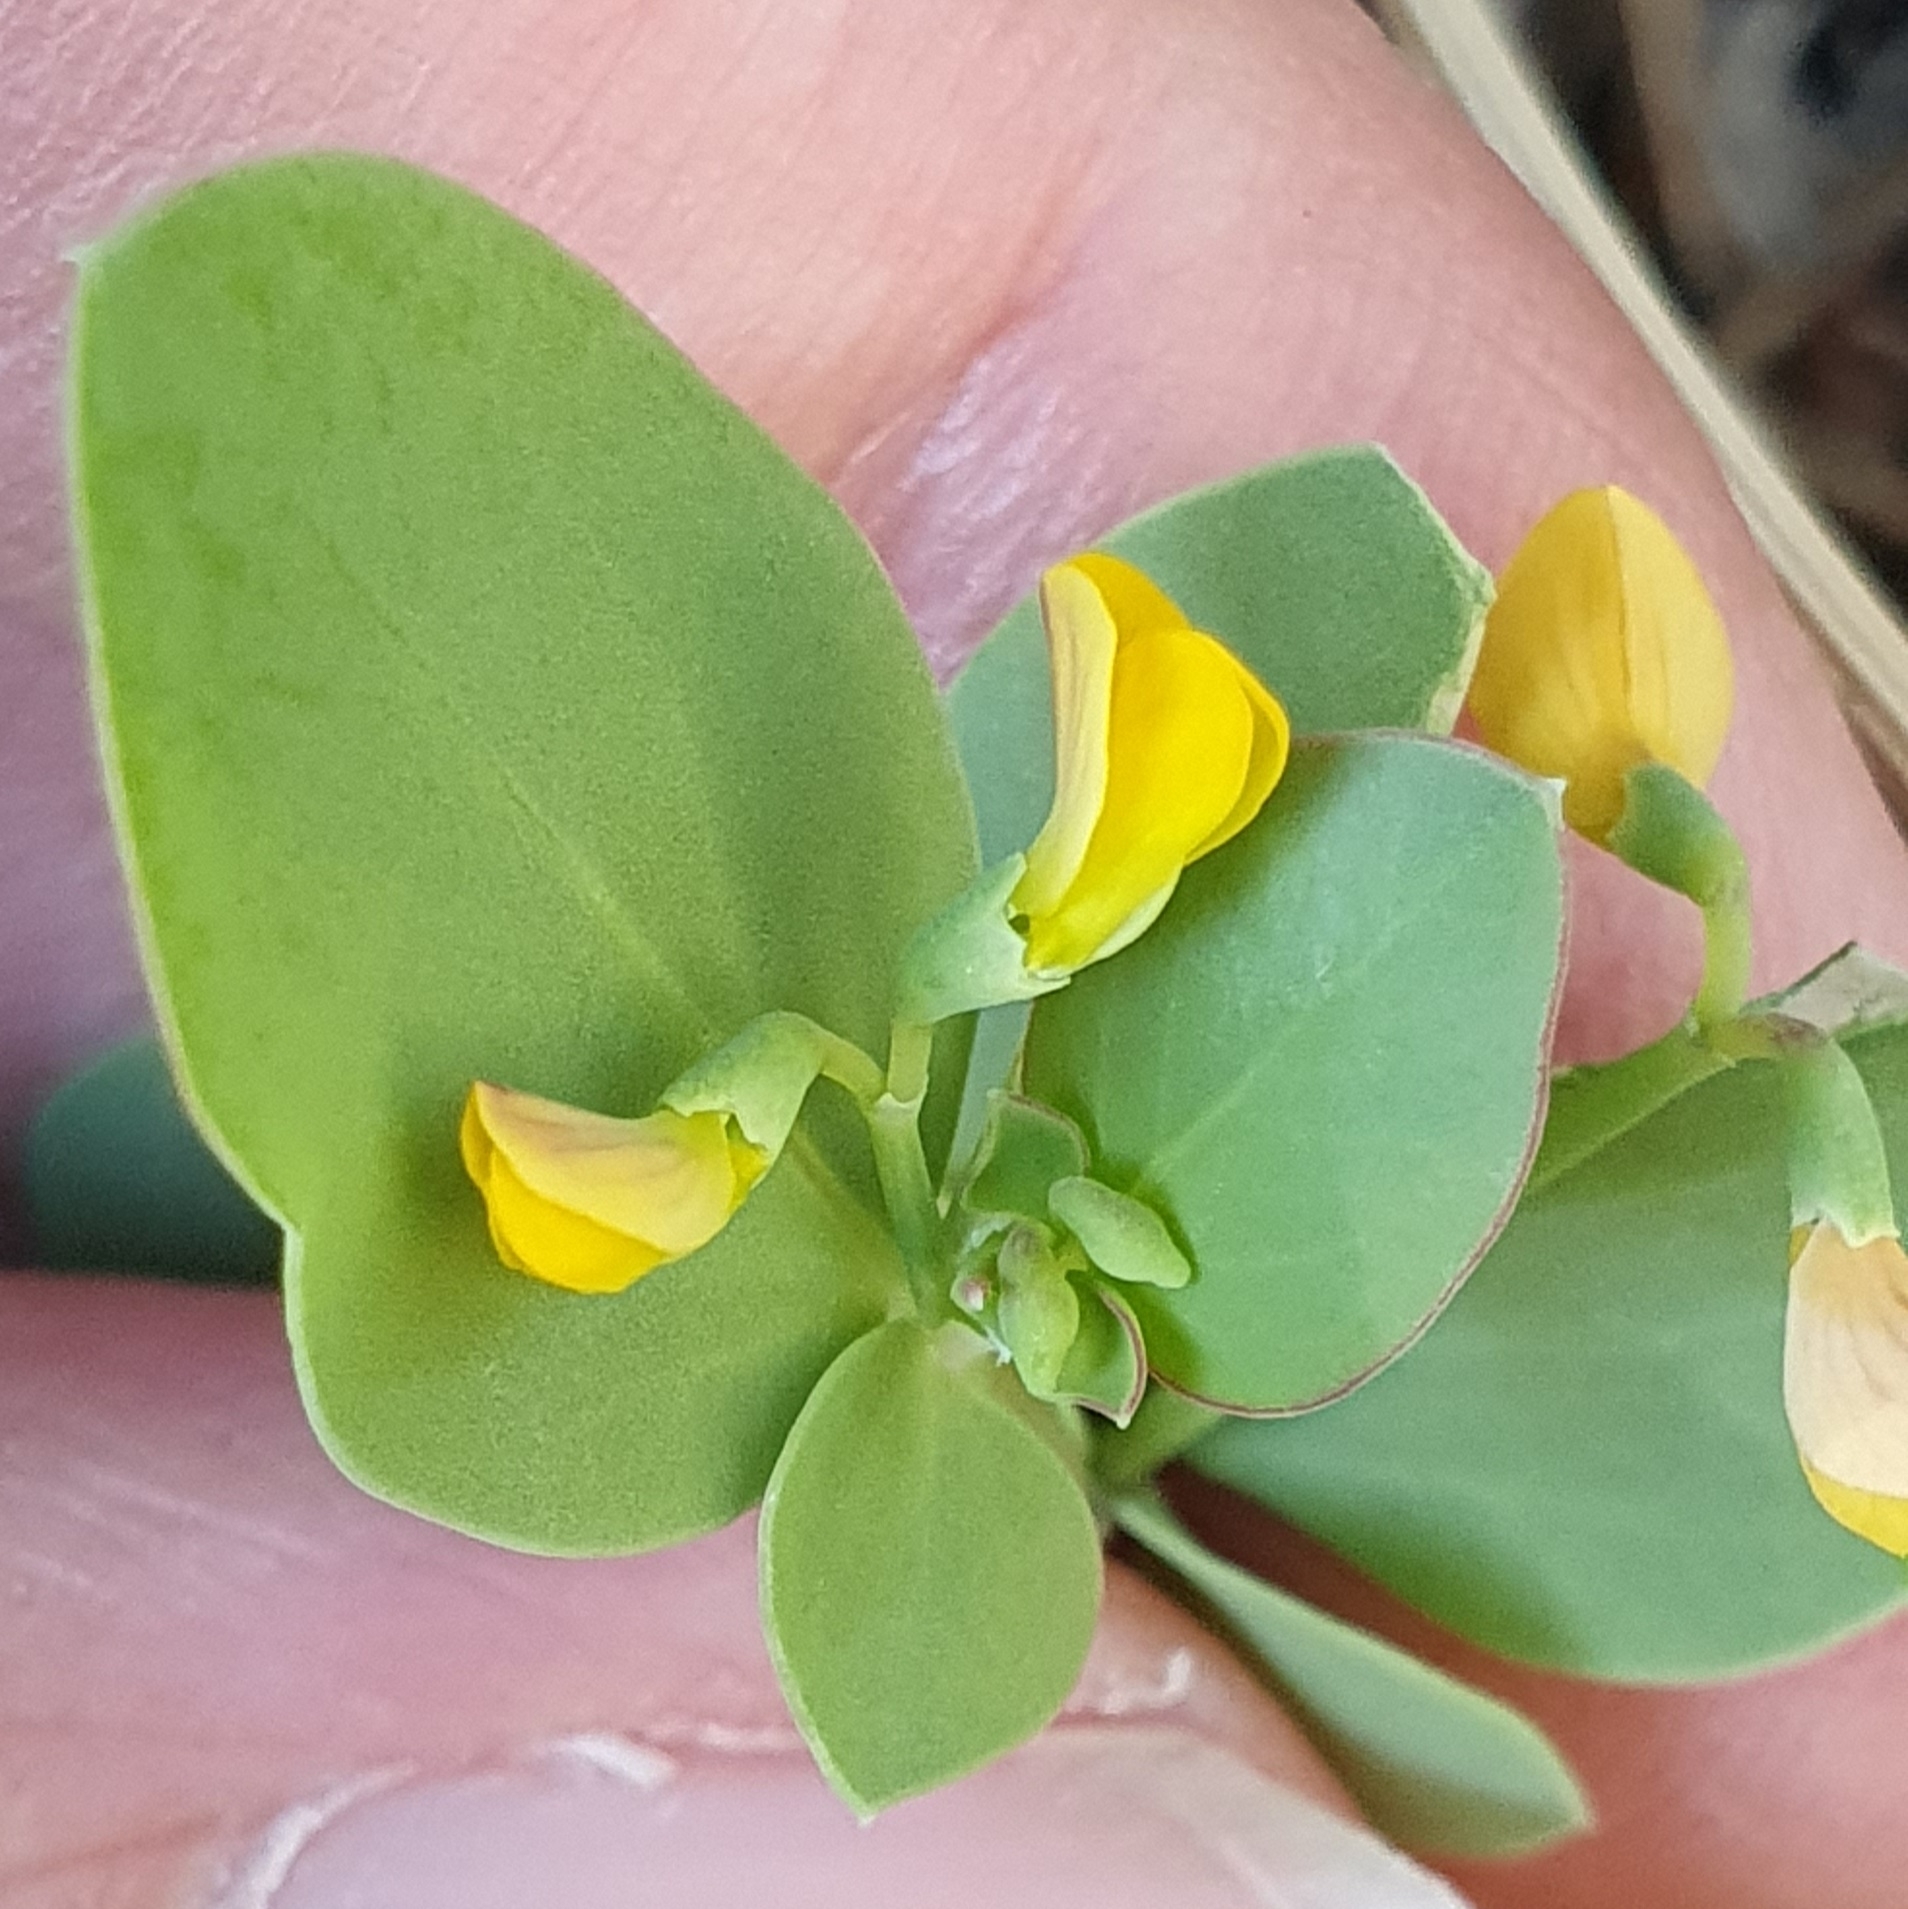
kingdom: Plantae
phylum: Tracheophyta
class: Magnoliopsida
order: Fabales
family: Fabaceae
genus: Coronilla
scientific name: Coronilla scorpioides
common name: Annual scorpion-vetch
